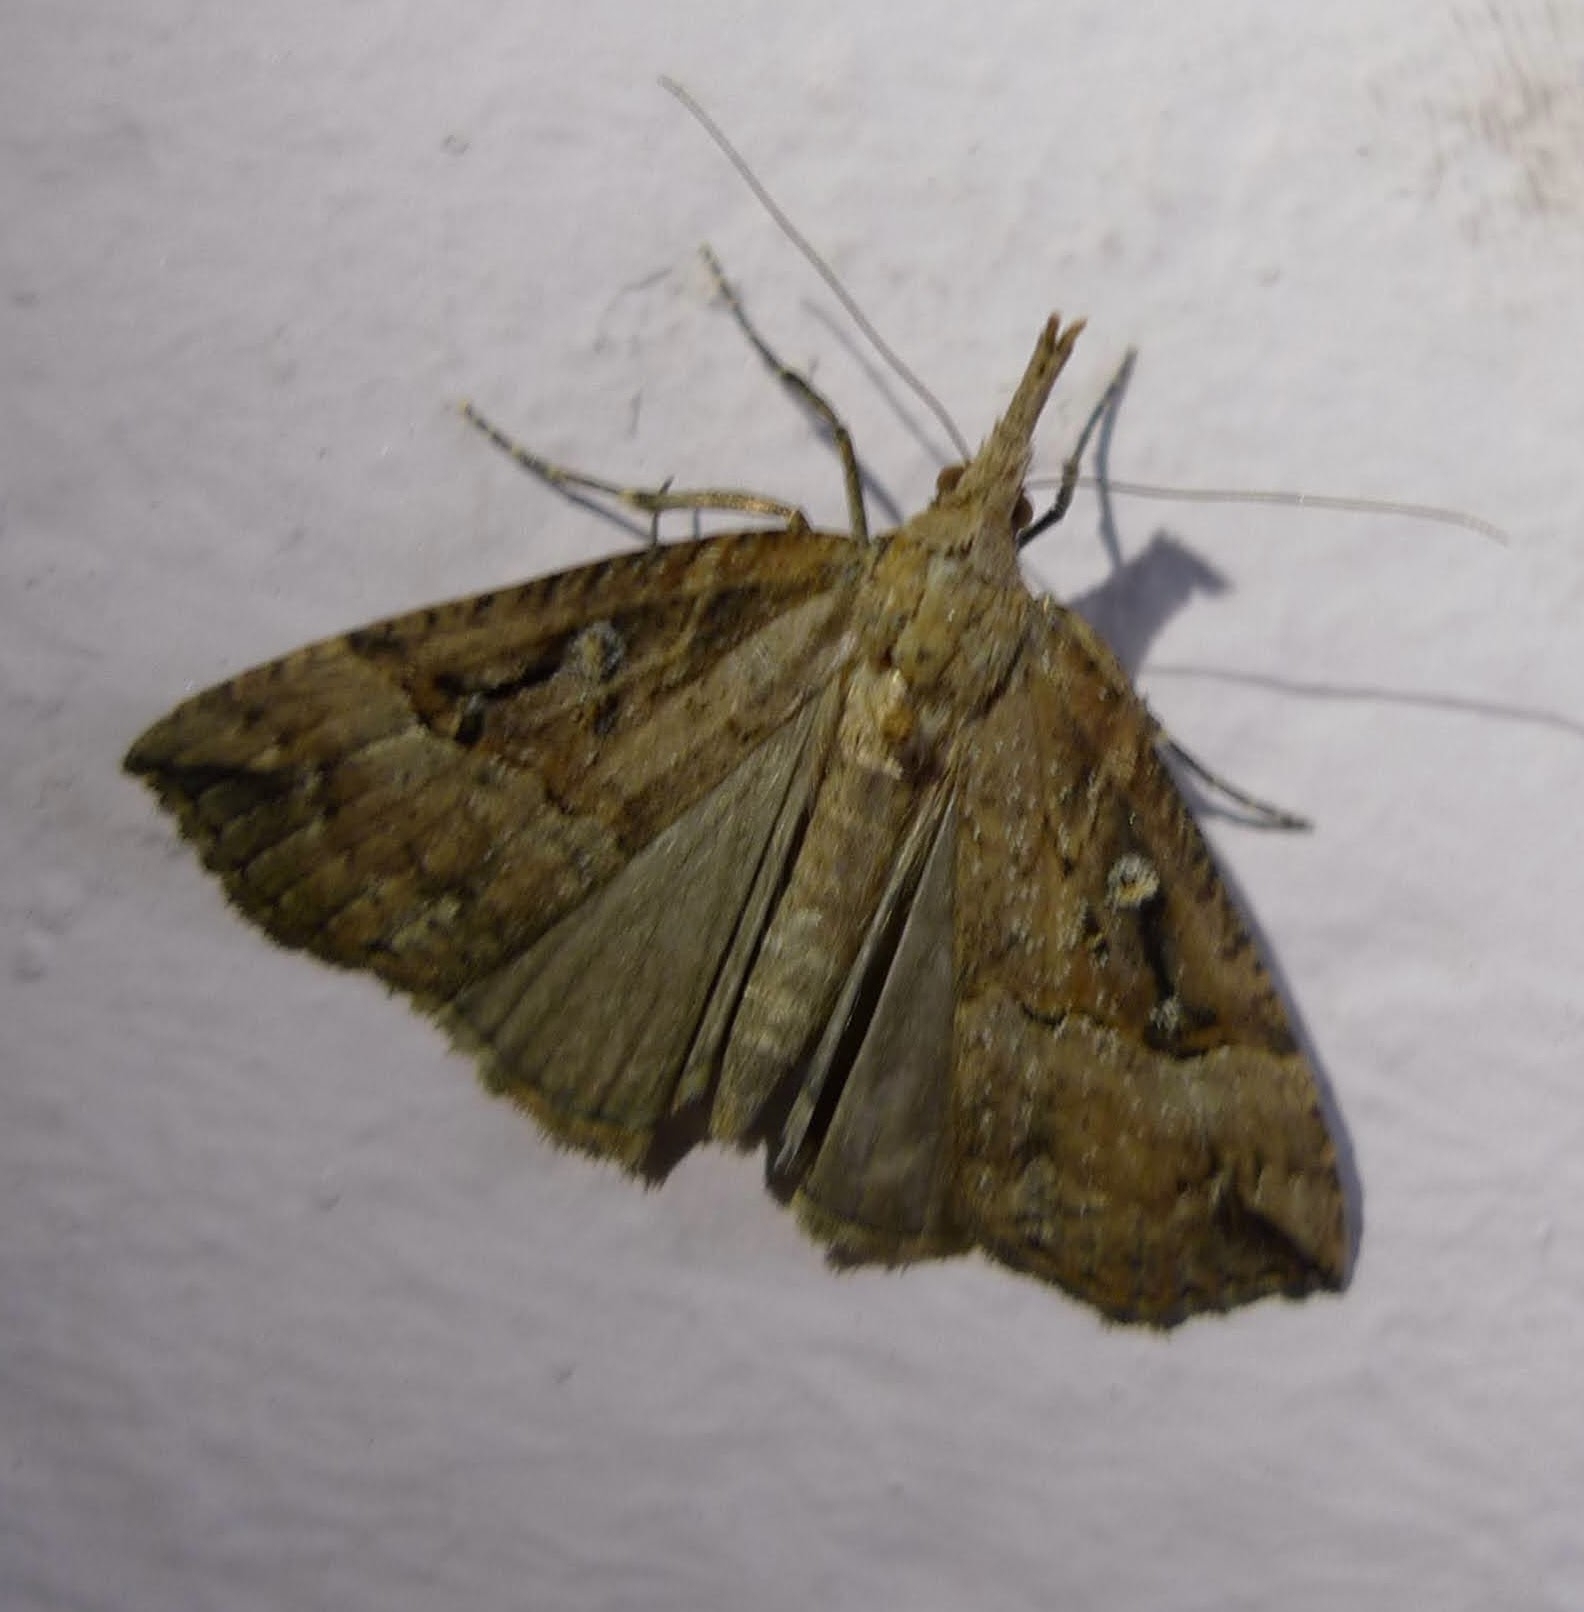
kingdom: Animalia
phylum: Arthropoda
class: Insecta
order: Lepidoptera
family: Erebidae
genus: Hypena
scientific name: Hypena rostralis
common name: Buttoned snout
